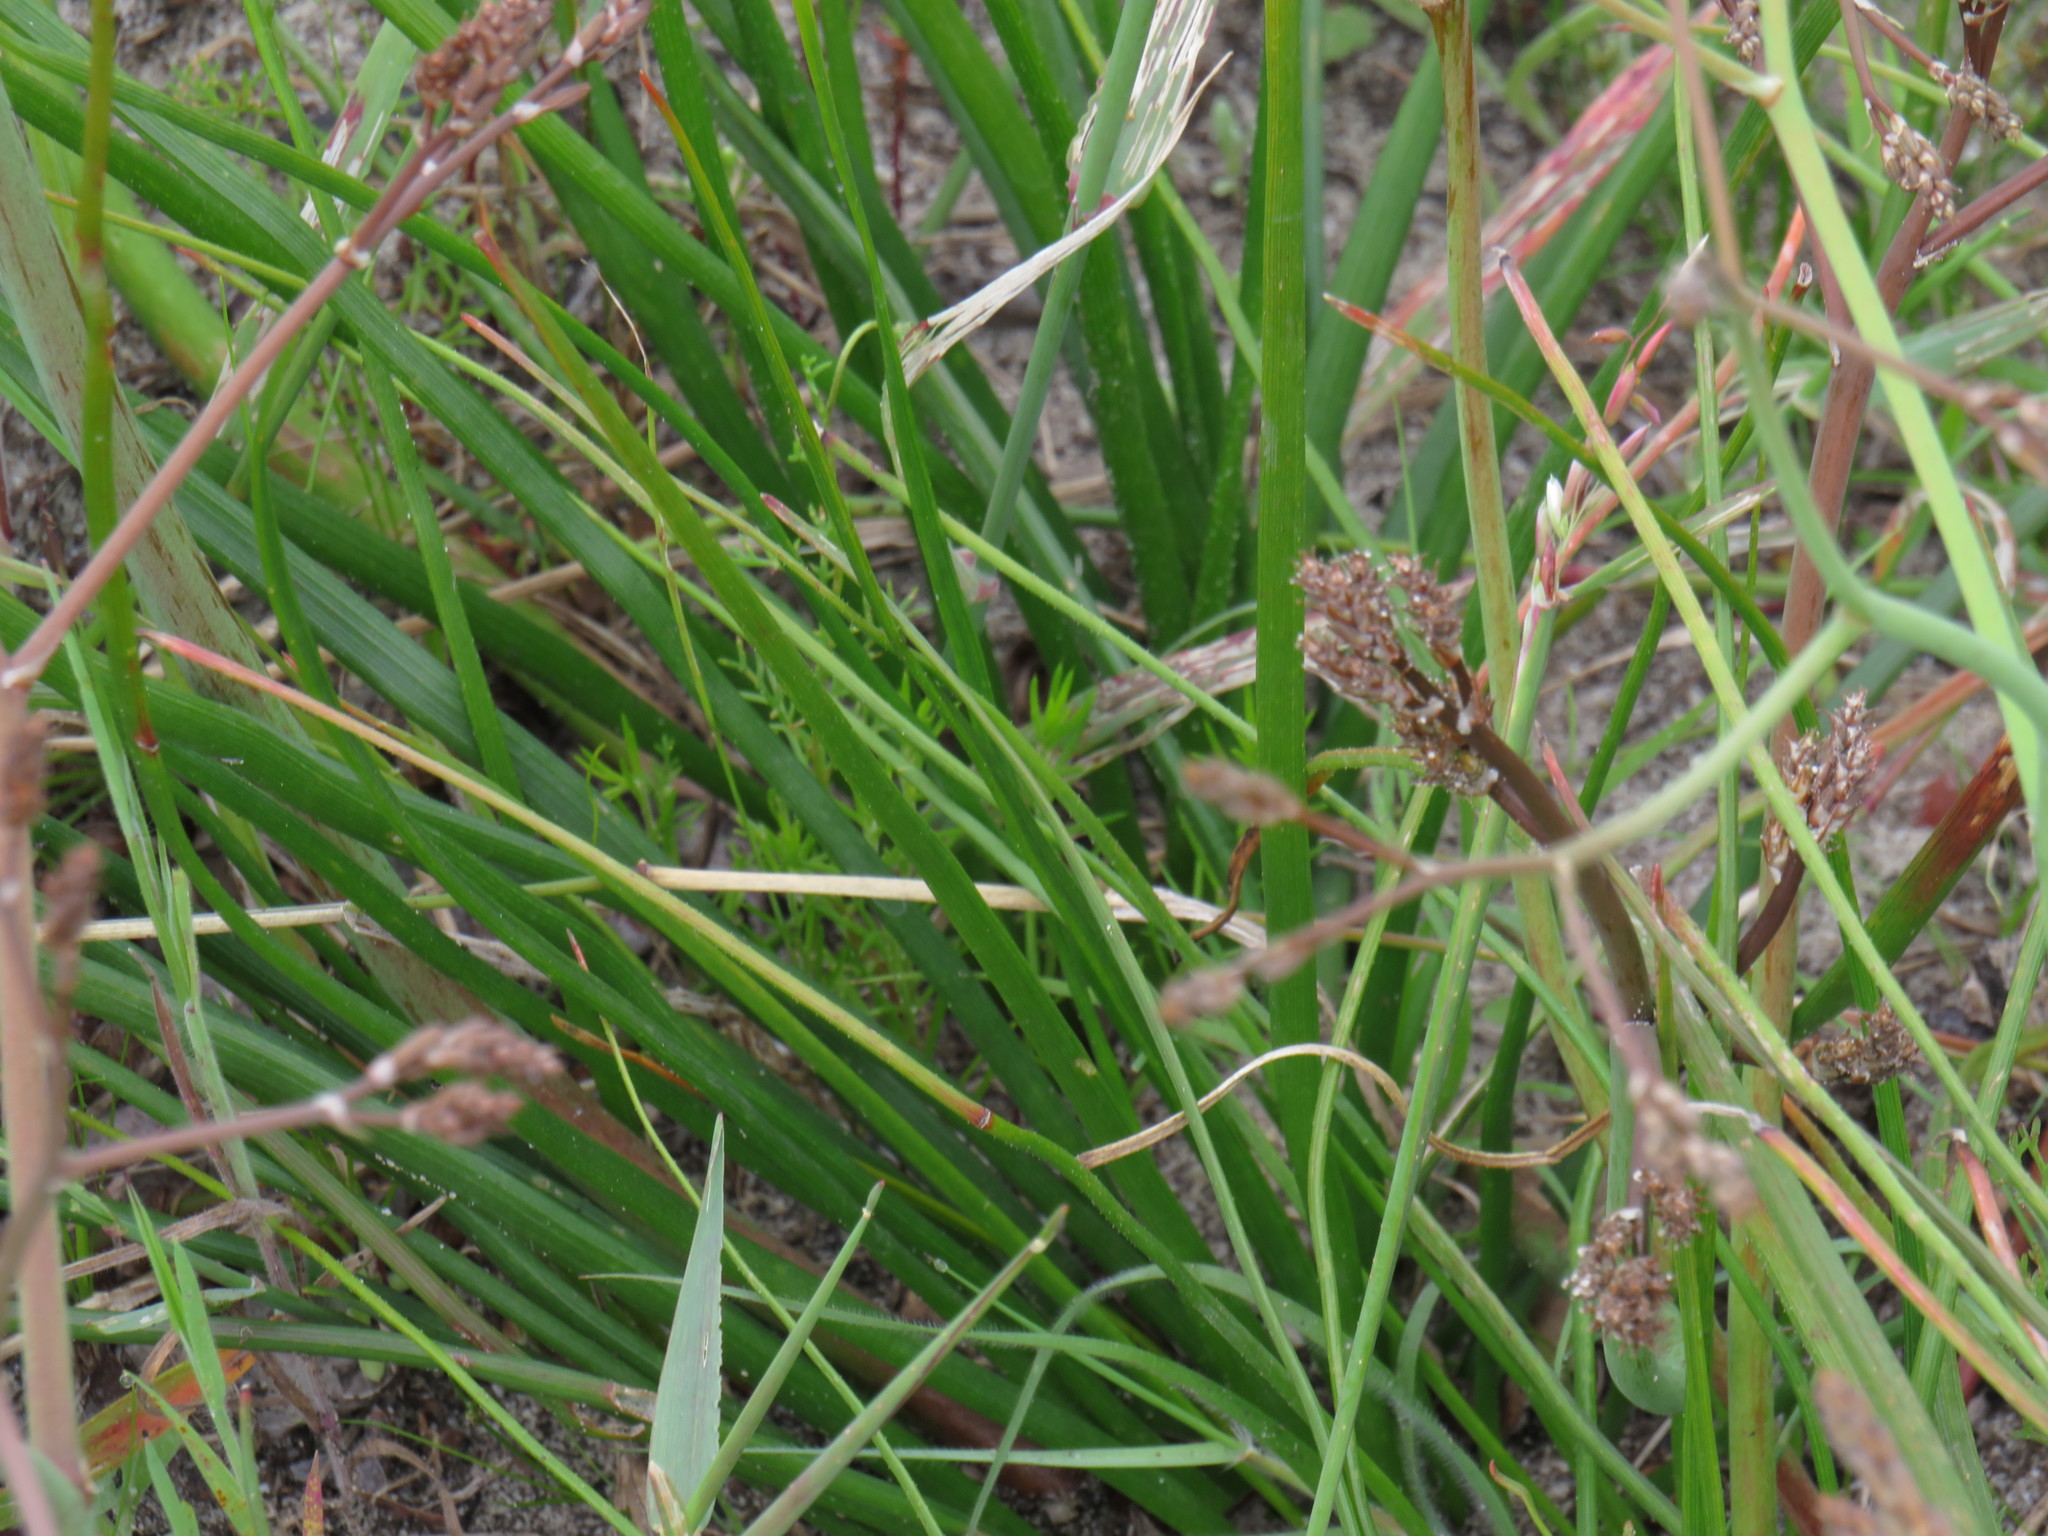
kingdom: Plantae
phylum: Tracheophyta
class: Liliopsida
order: Asparagales
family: Asphodelaceae
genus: Trachyandra
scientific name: Trachyandra divaricata
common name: Dune onionweed
